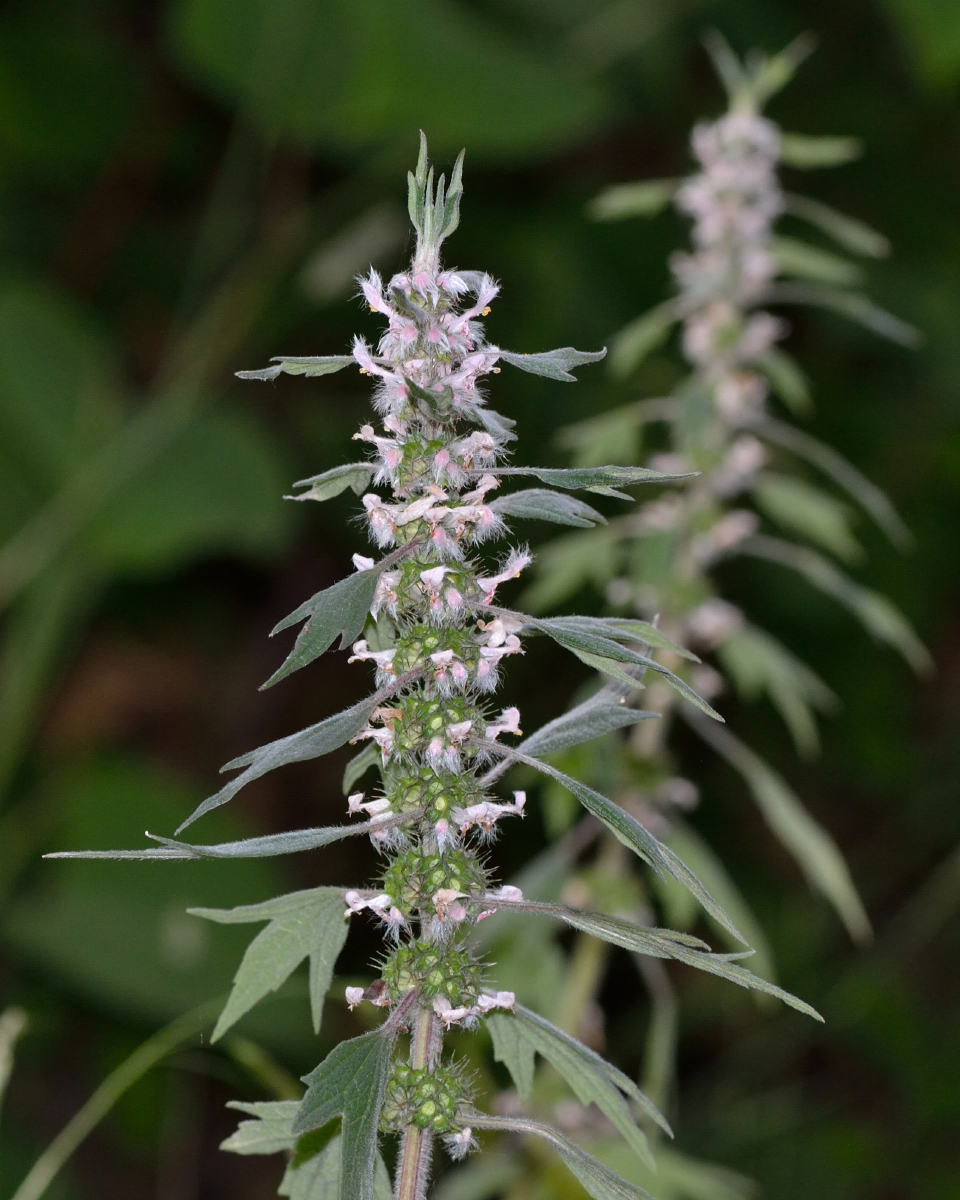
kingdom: Plantae
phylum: Tracheophyta
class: Magnoliopsida
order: Lamiales
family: Lamiaceae
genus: Leonurus
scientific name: Leonurus quinquelobatus
